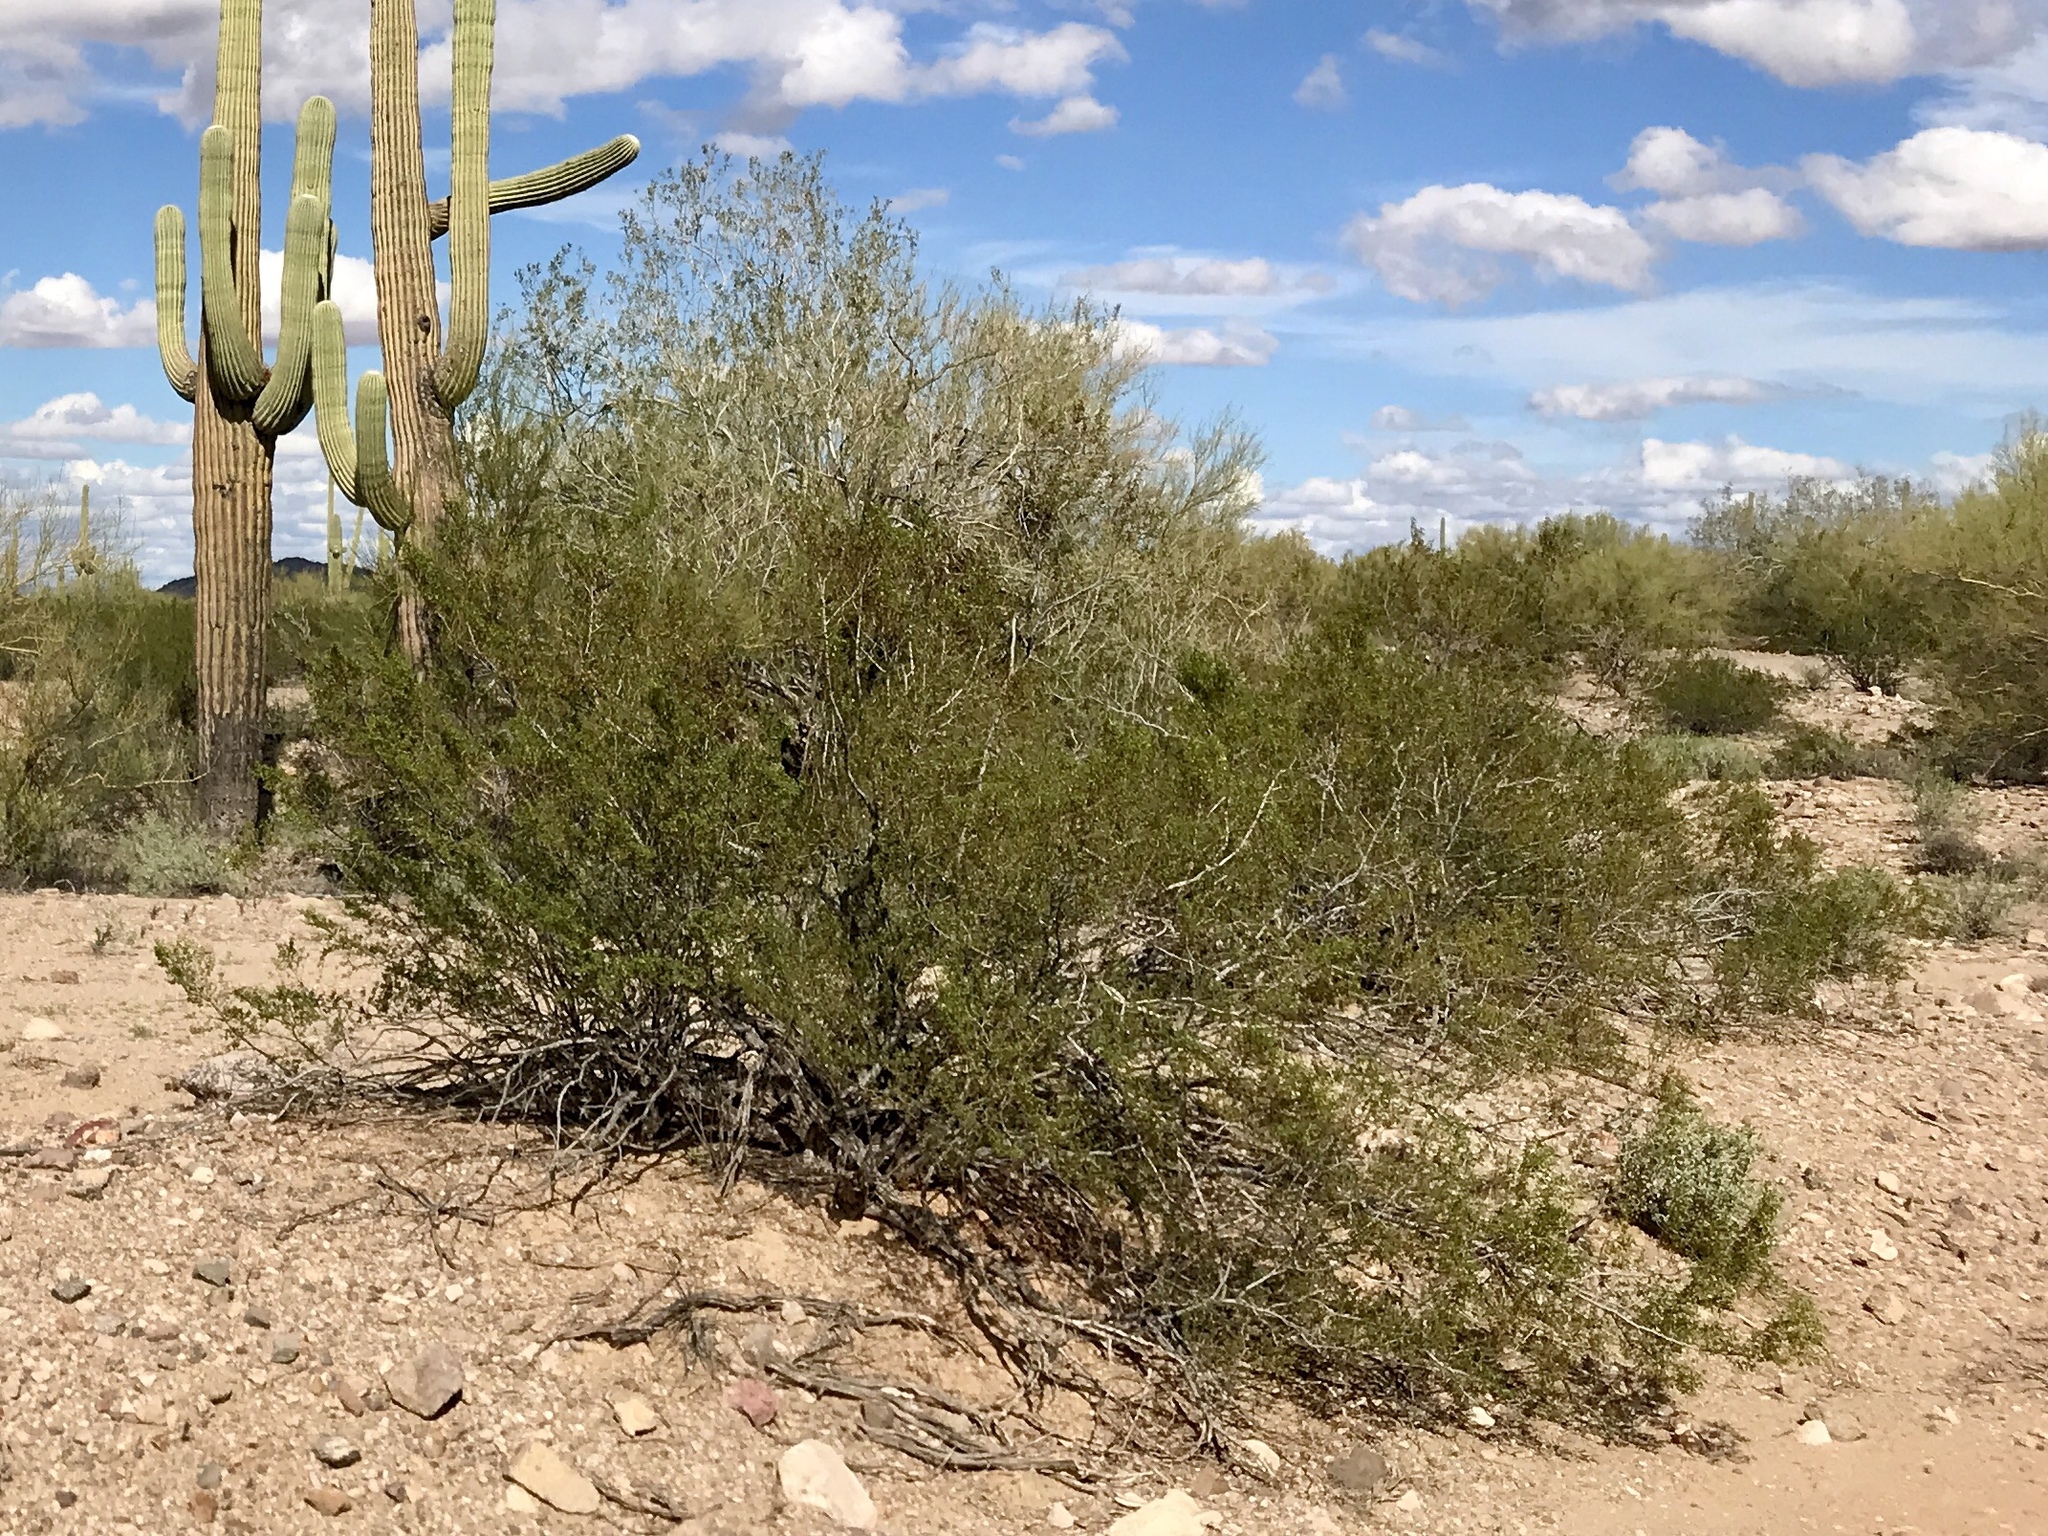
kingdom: Plantae
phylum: Tracheophyta
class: Magnoliopsida
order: Zygophyllales
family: Zygophyllaceae
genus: Larrea
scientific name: Larrea tridentata
